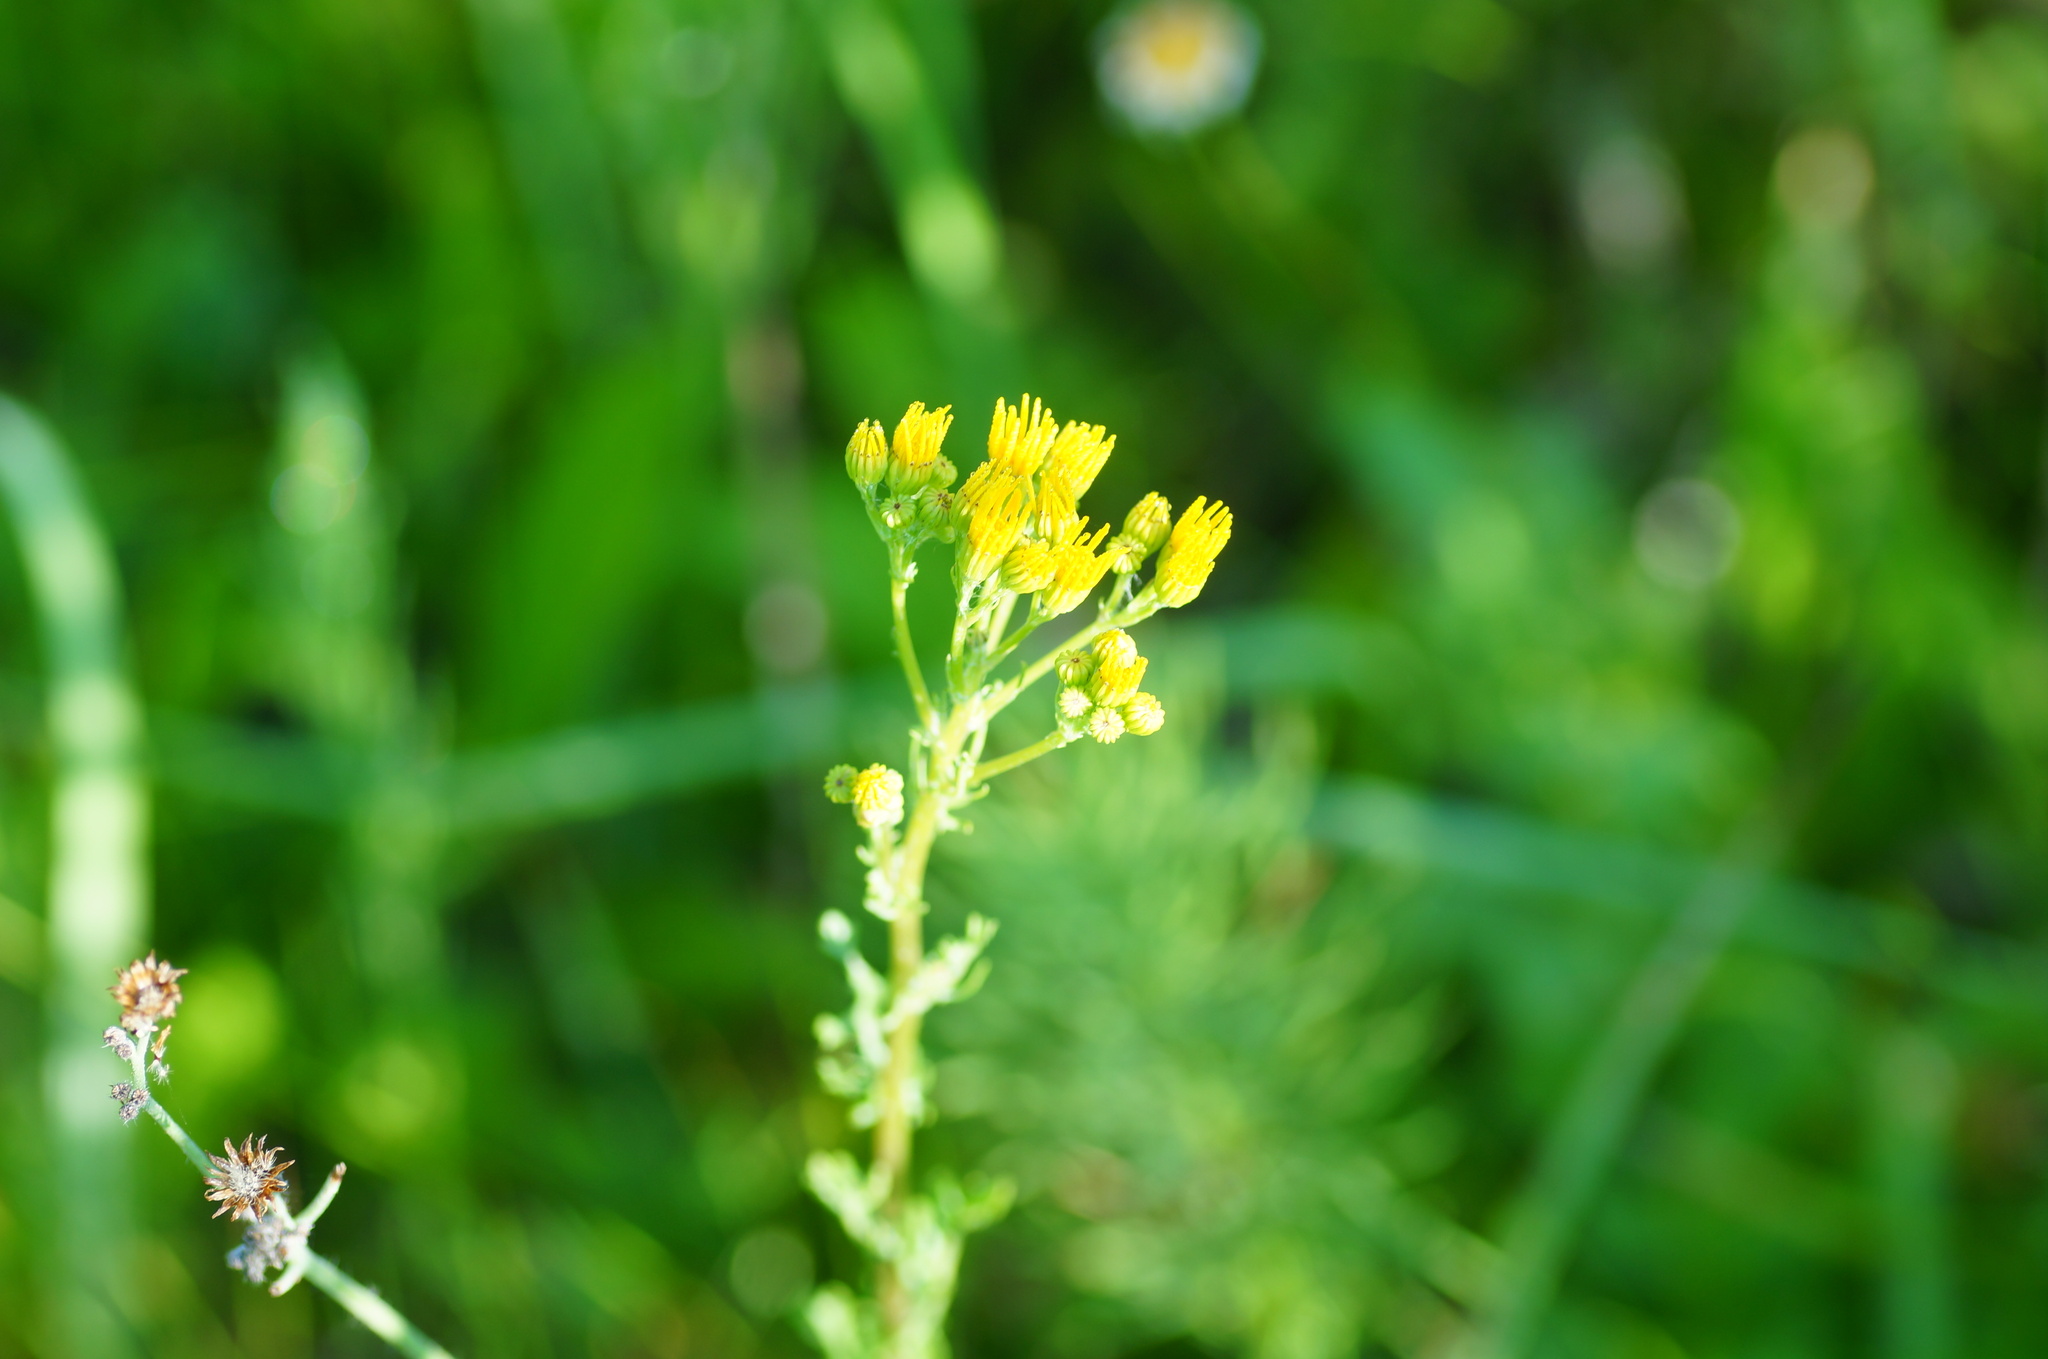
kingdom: Plantae
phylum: Tracheophyta
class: Magnoliopsida
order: Asterales
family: Asteraceae
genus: Jacobaea
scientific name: Jacobaea vulgaris
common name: Stinking willie
